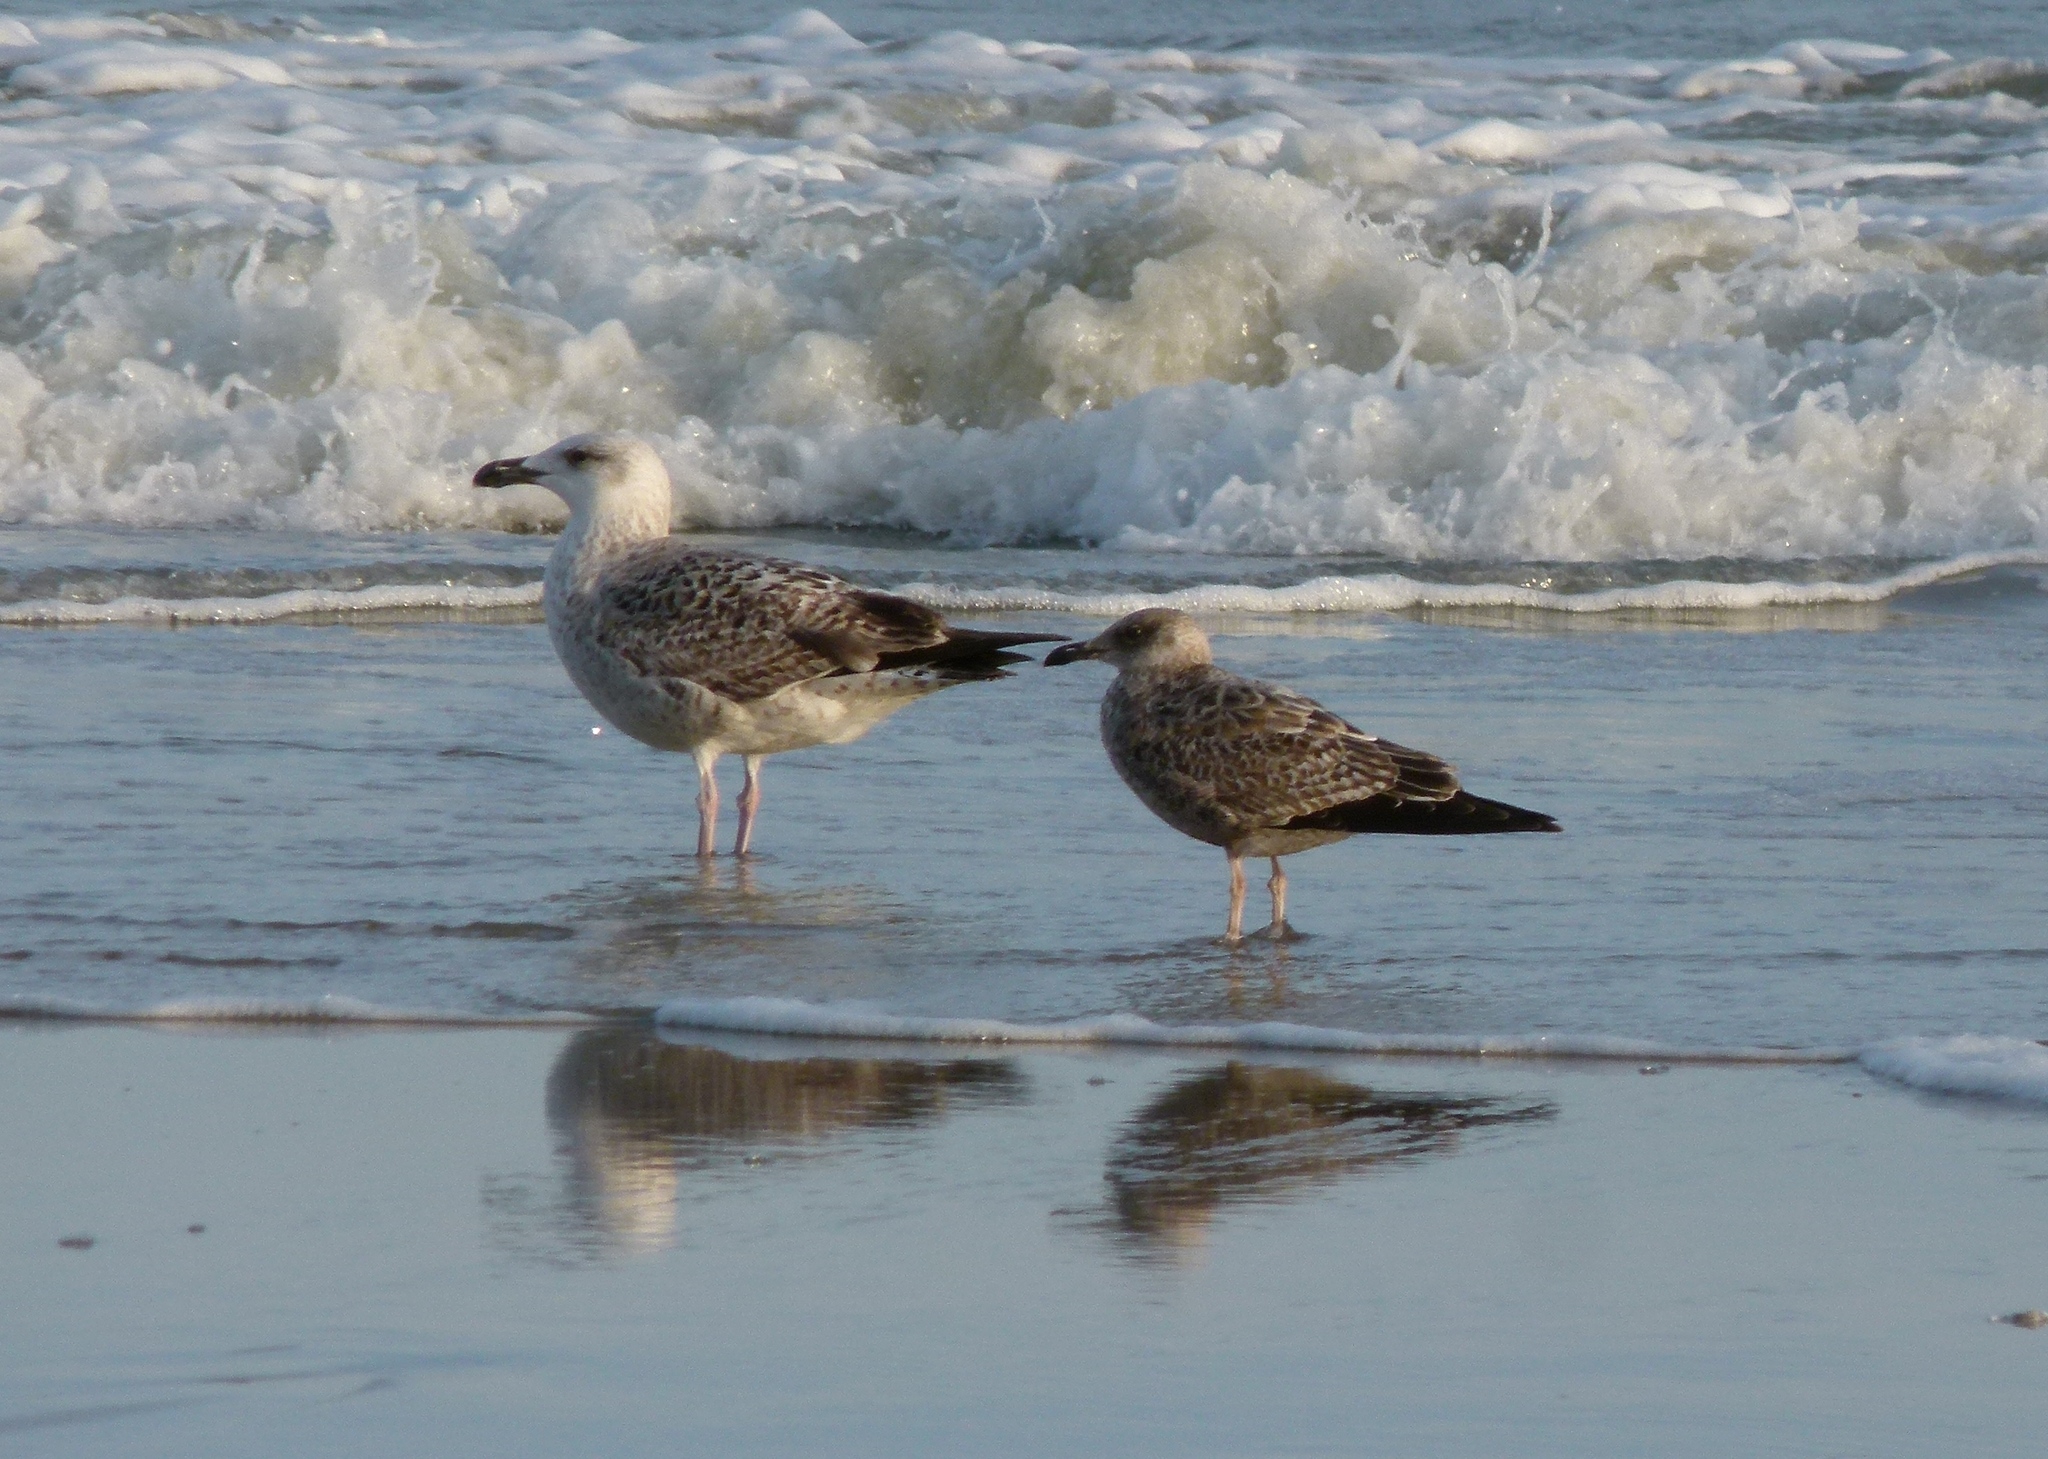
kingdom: Animalia
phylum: Chordata
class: Aves
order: Charadriiformes
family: Laridae
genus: Larus
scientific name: Larus marinus
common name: Great black-backed gull
